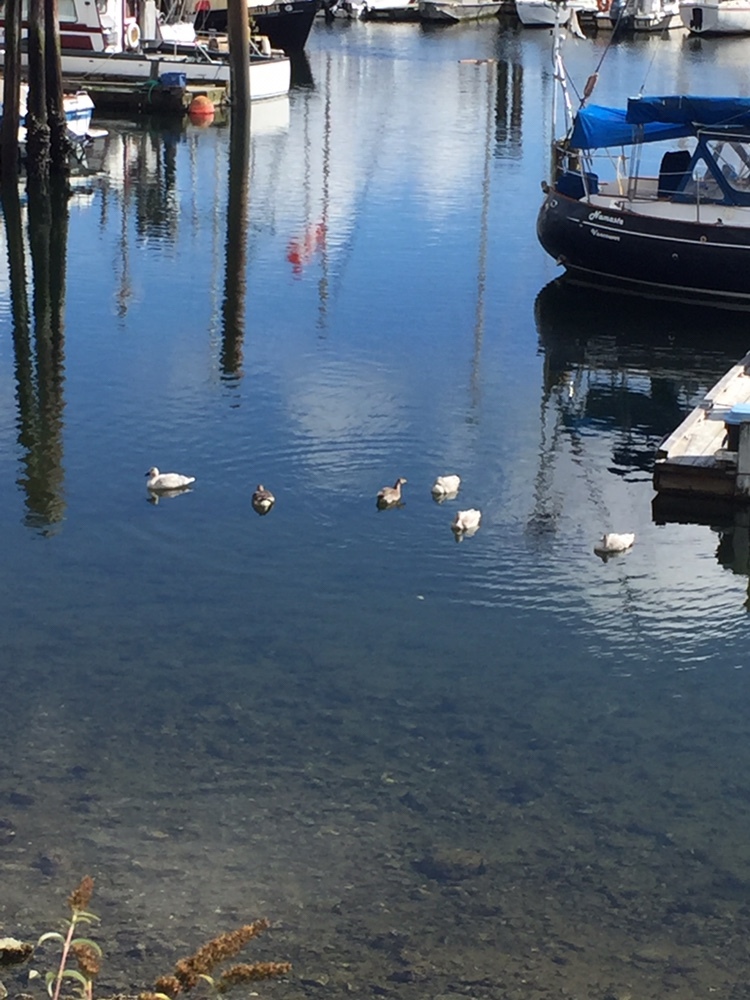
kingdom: Animalia
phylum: Chordata
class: Aves
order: Anseriformes
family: Anatidae
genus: Anser
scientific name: Anser caerulescens
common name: Snow goose
